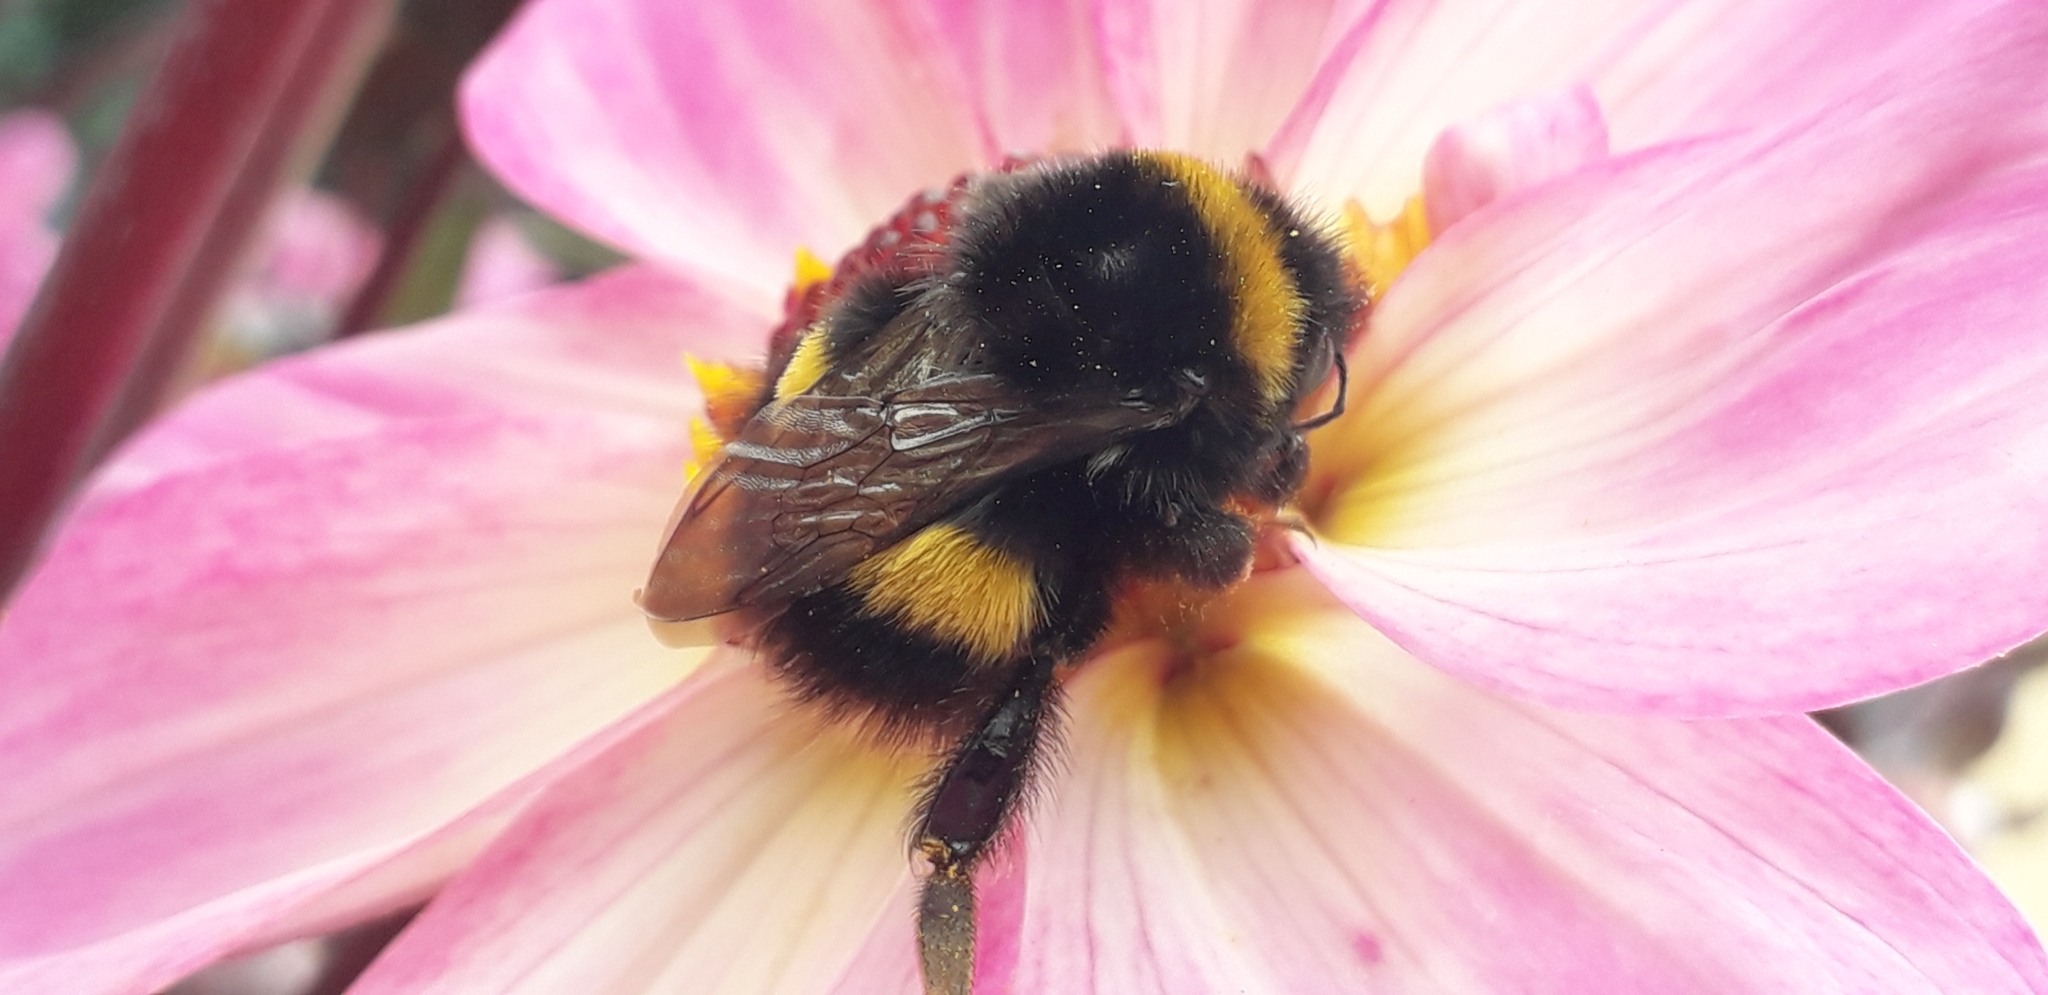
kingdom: Animalia
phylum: Arthropoda
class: Insecta
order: Hymenoptera
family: Apidae
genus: Bombus
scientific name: Bombus terrestris
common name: Buff-tailed bumblebee
